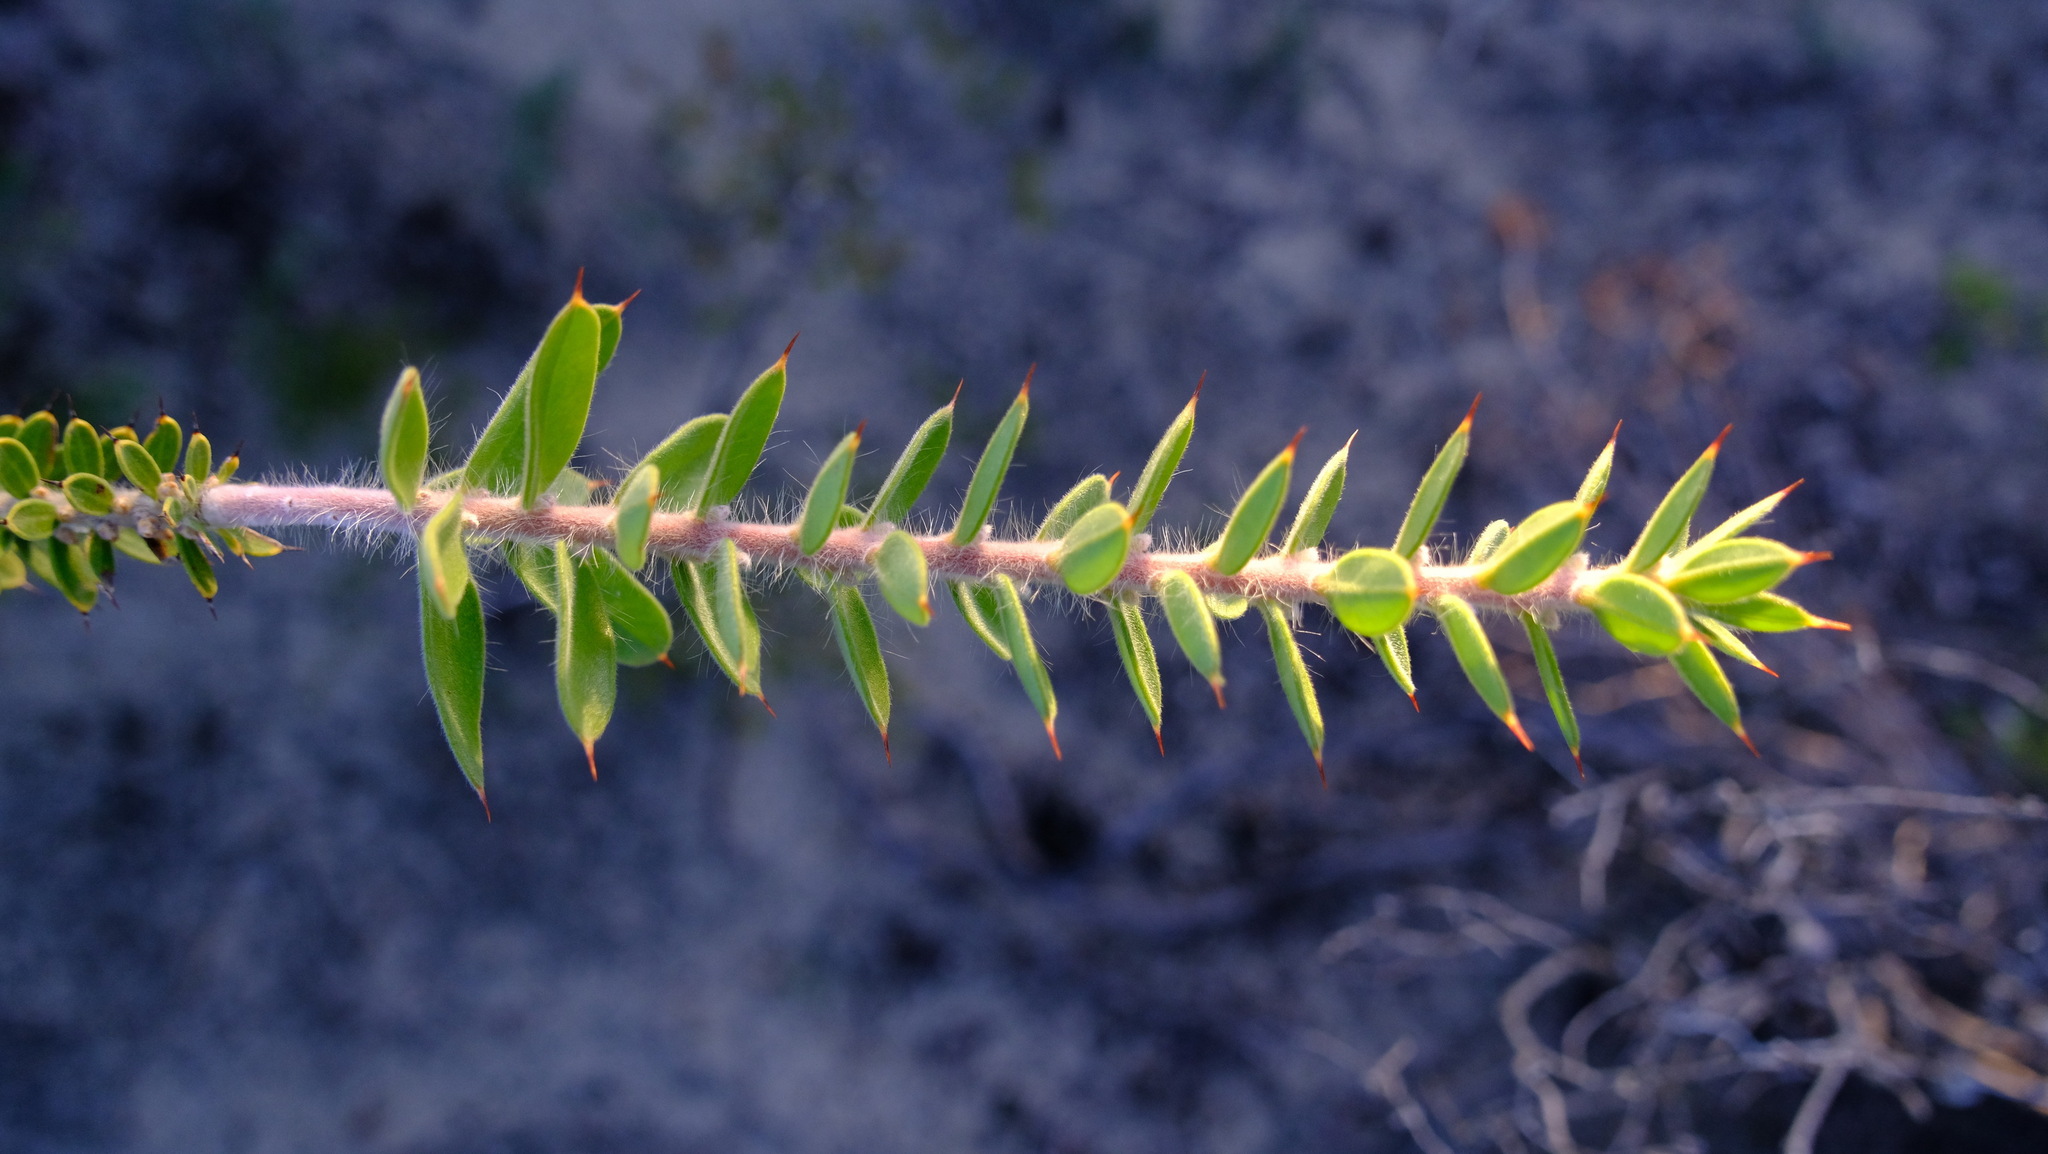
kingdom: Plantae
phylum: Tracheophyta
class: Magnoliopsida
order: Proteales
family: Proteaceae
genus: Hakea
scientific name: Hakea ruscifolia
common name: Candle hakea
